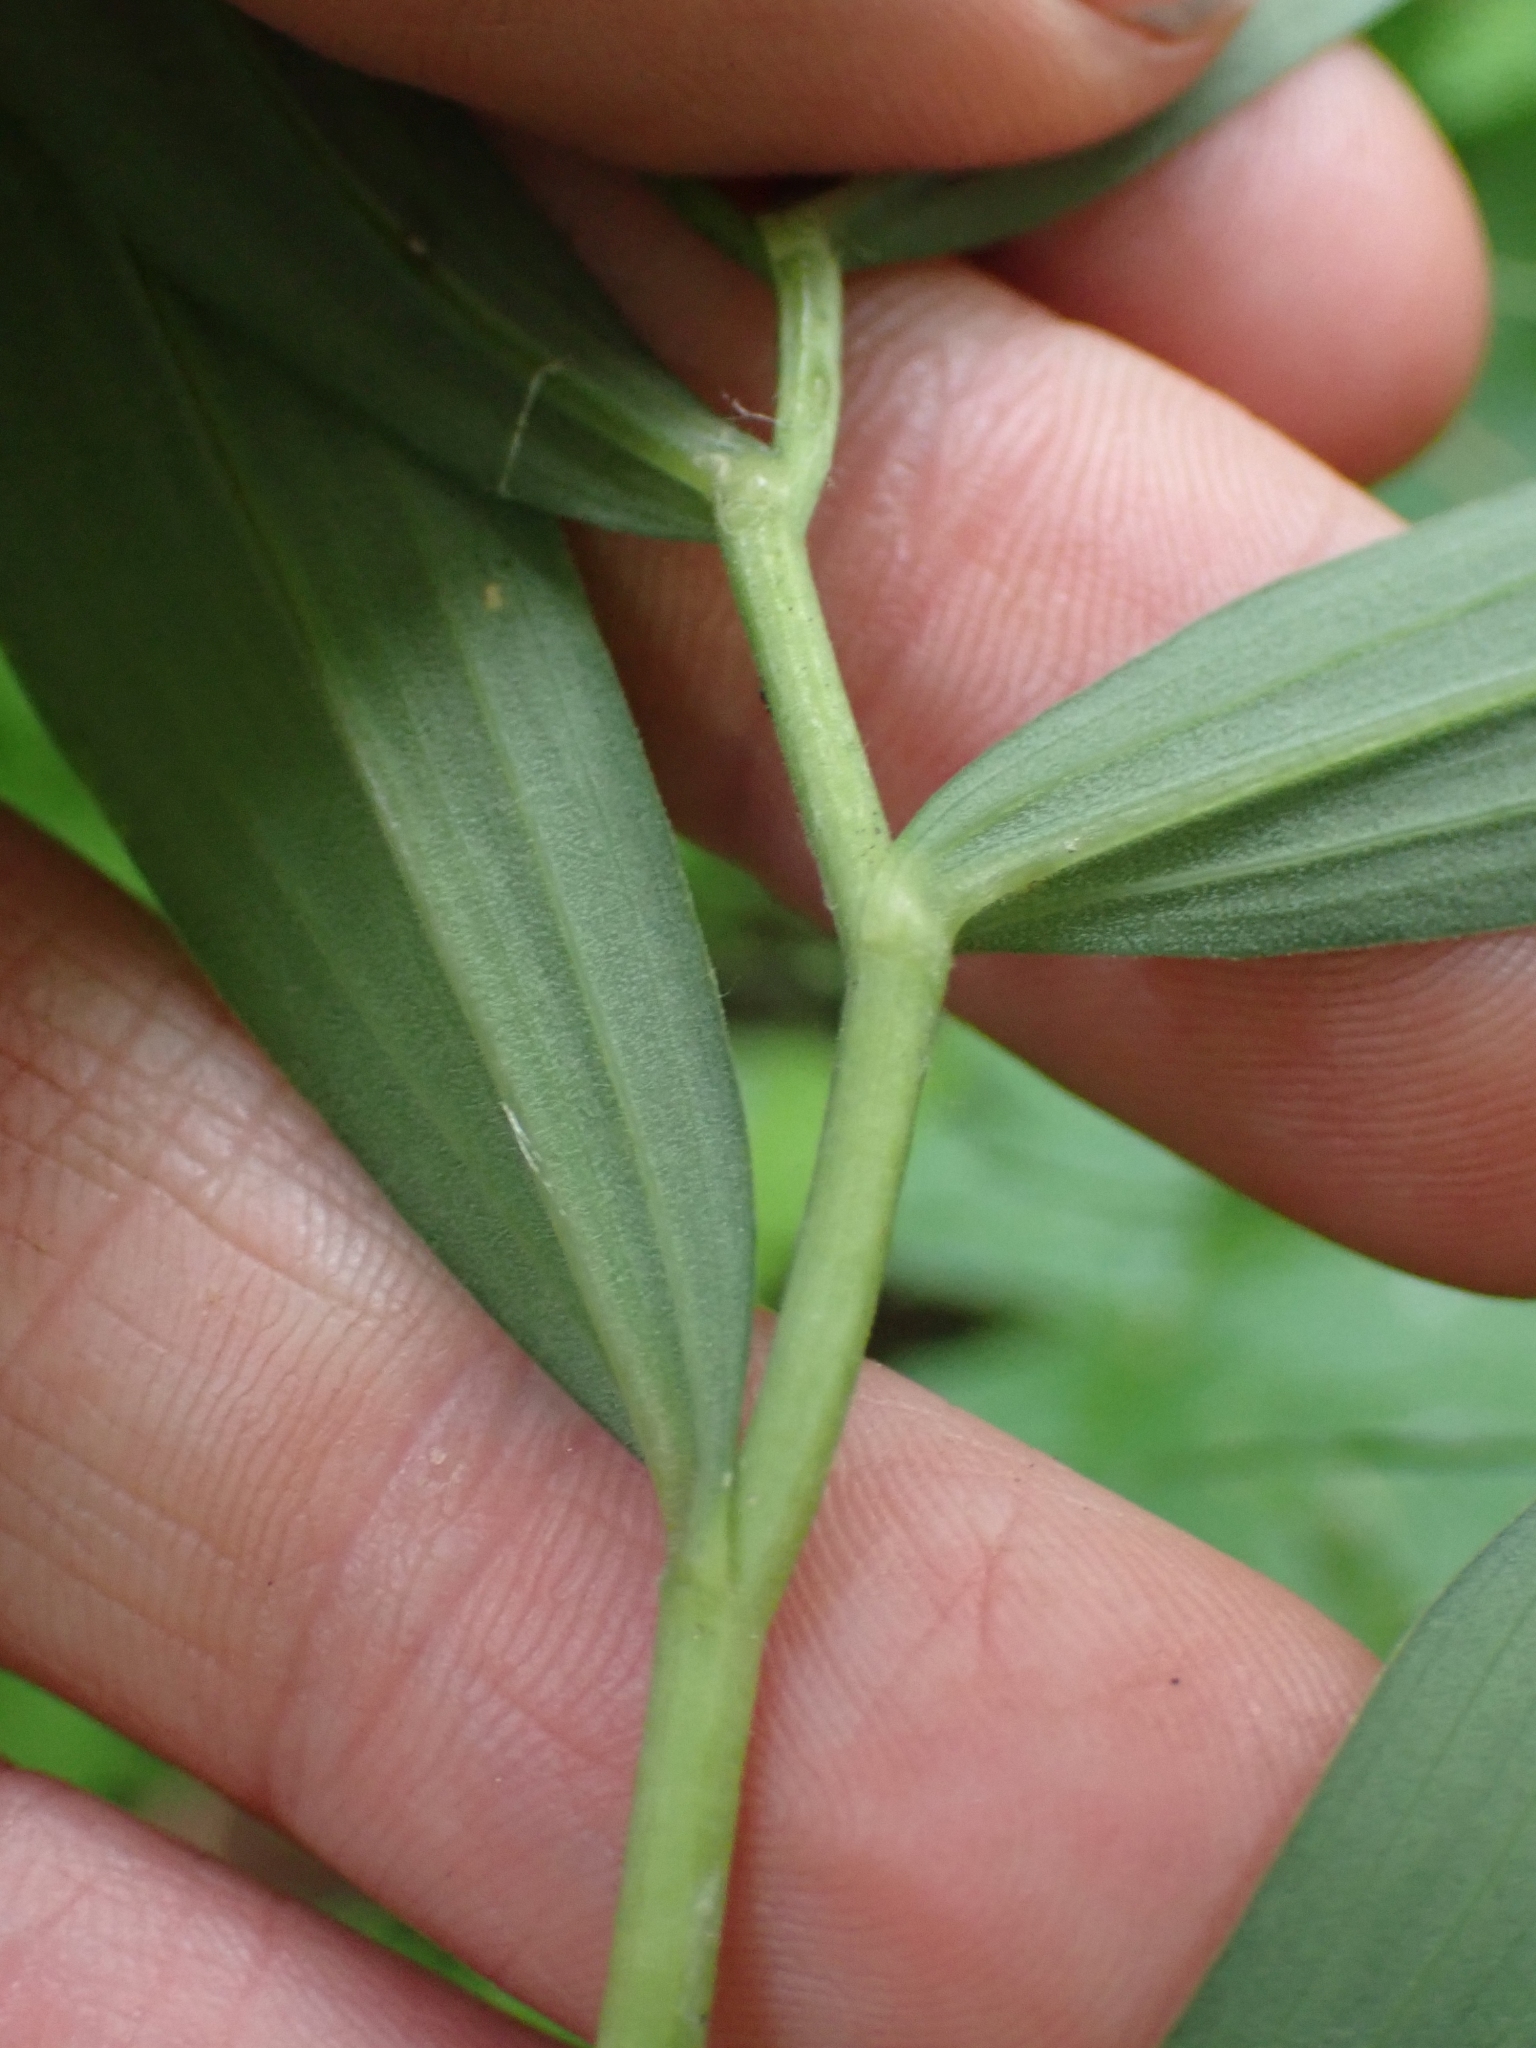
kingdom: Plantae
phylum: Tracheophyta
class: Liliopsida
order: Asparagales
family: Asparagaceae
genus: Maianthemum
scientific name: Maianthemum stellatum
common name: Little false solomon's seal
